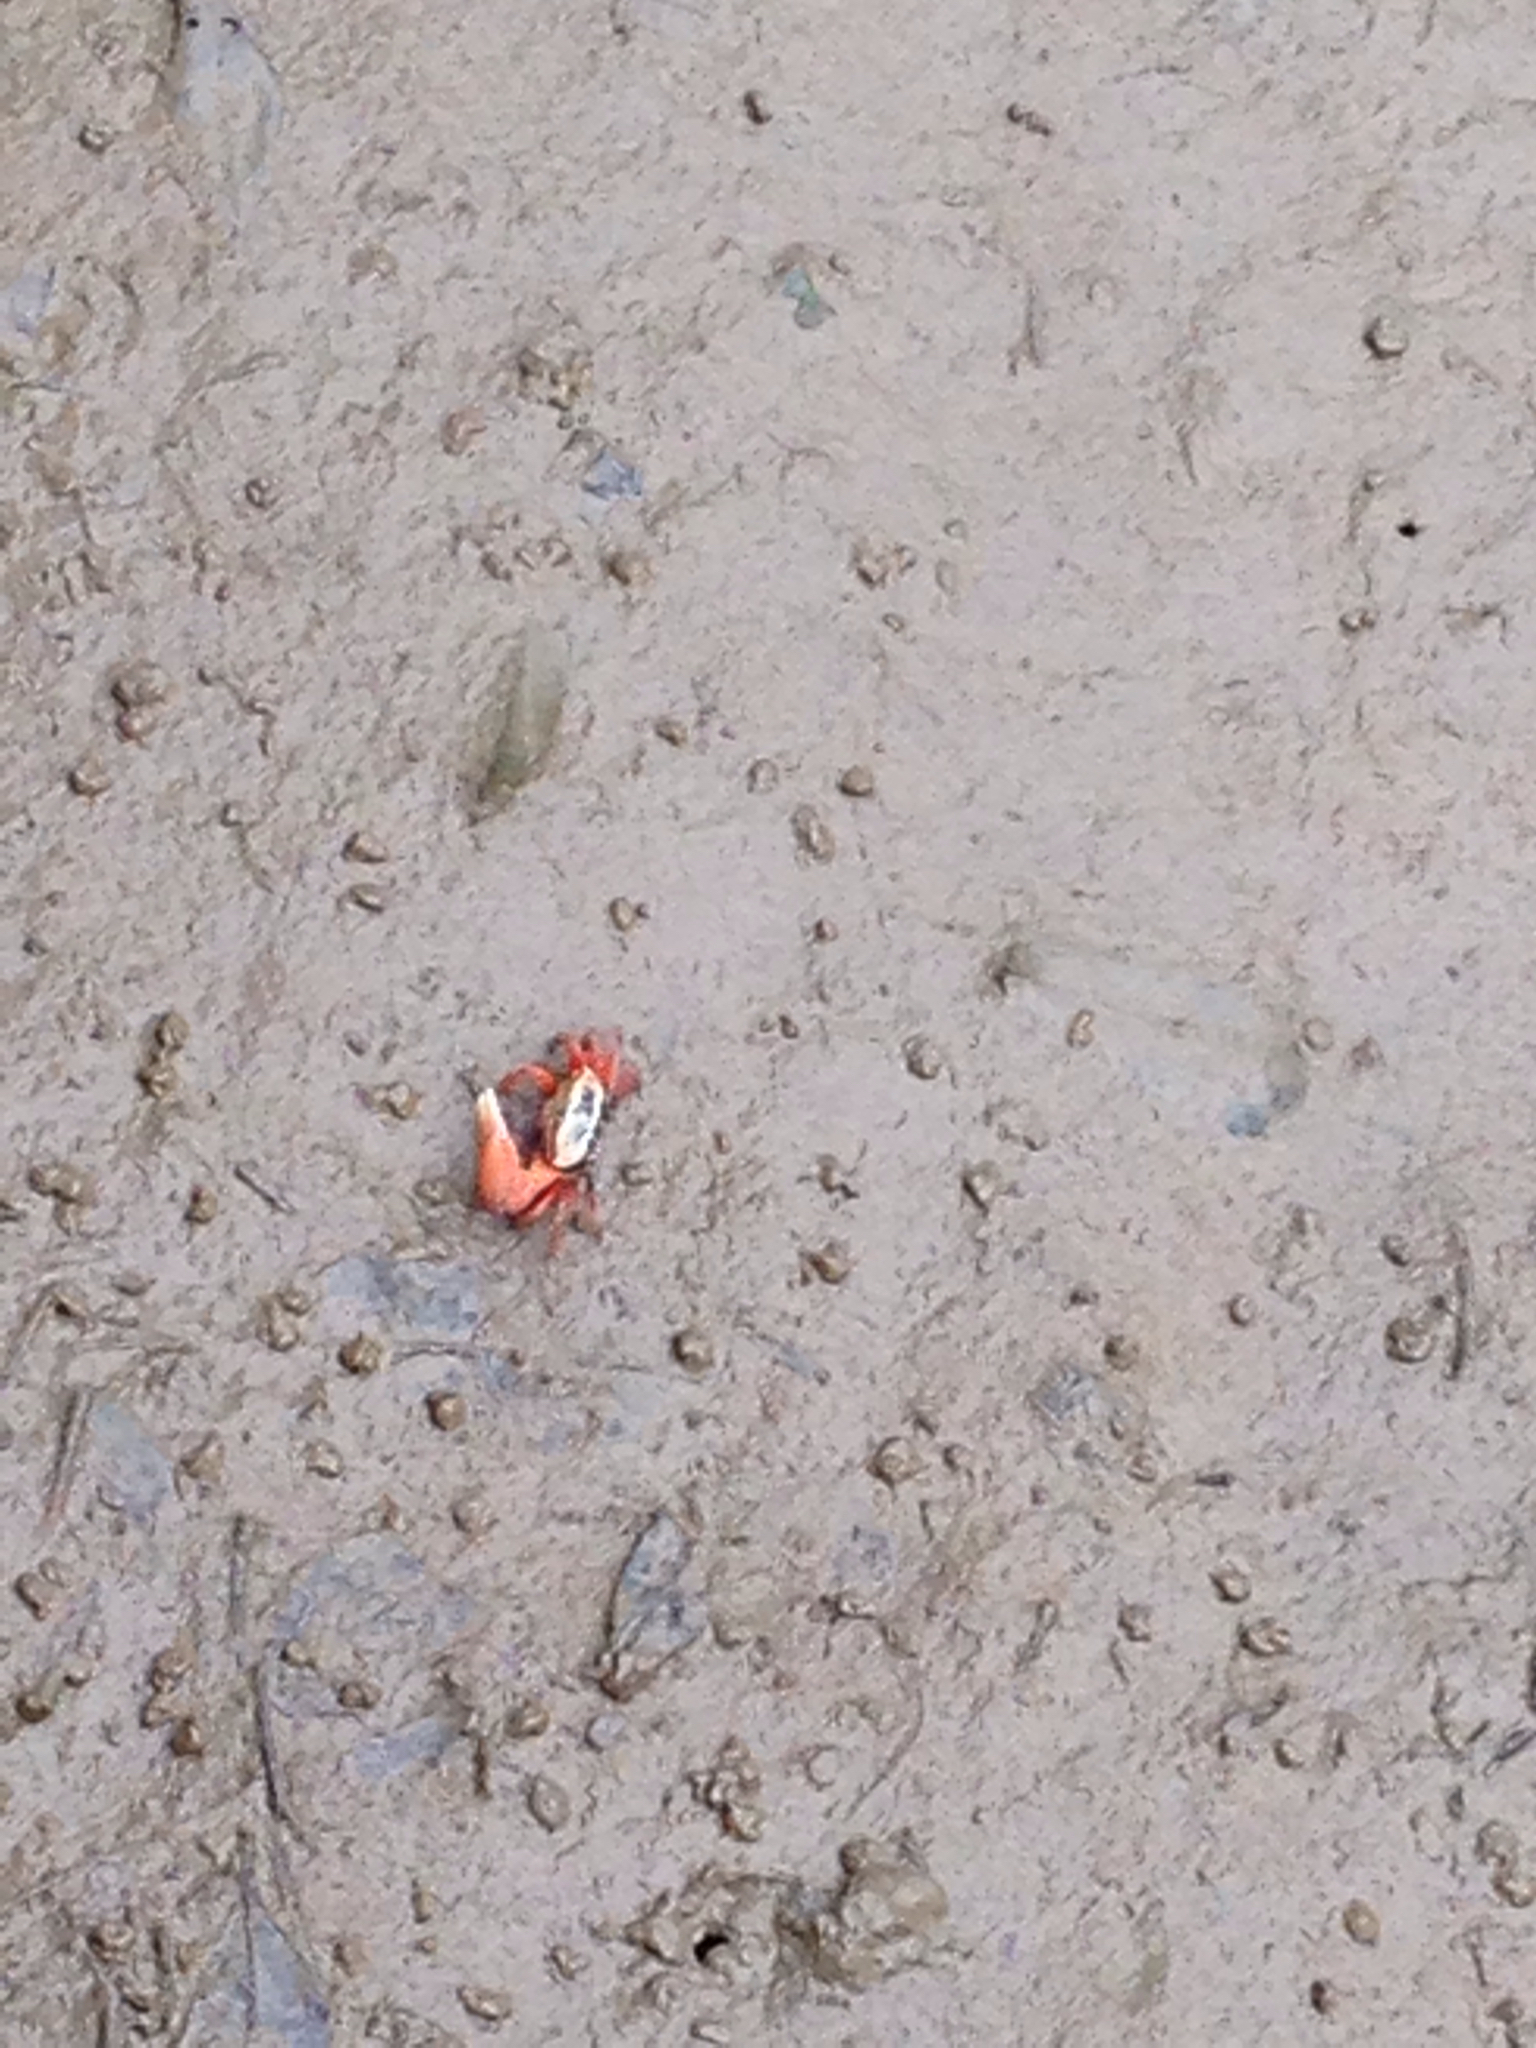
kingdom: Animalia
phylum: Arthropoda
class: Malacostraca
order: Decapoda
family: Ocypodidae
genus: Tubuca
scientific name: Tubuca arcuata
